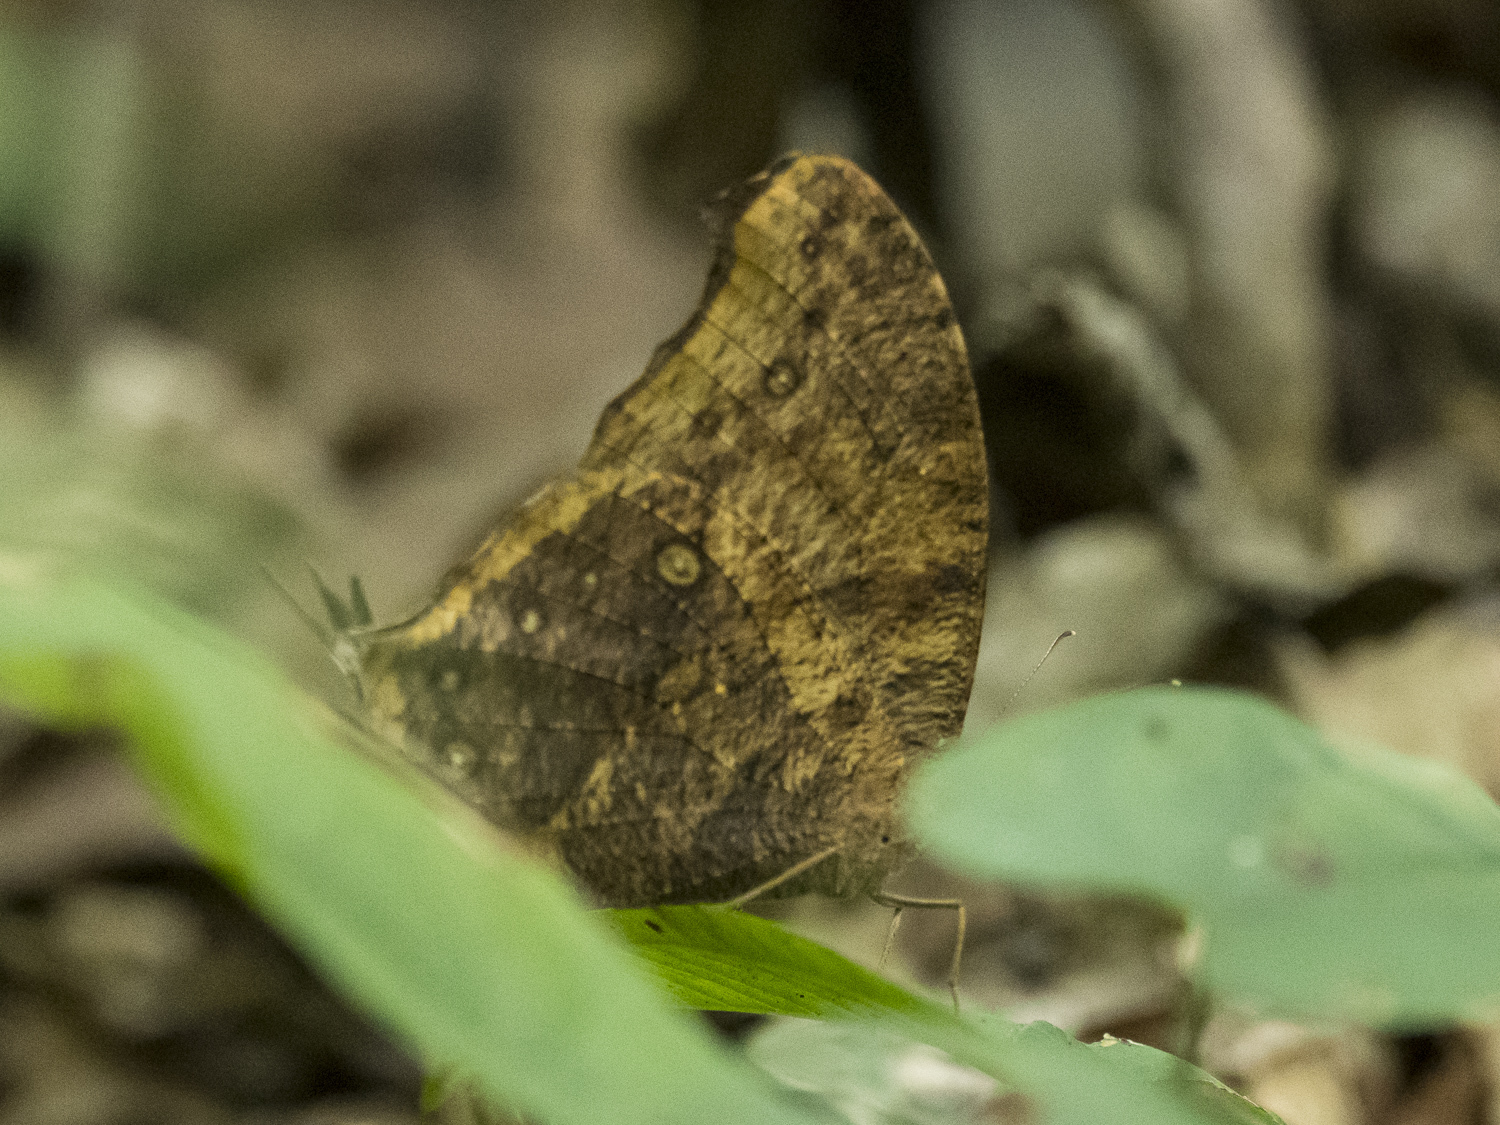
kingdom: Animalia
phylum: Arthropoda
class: Insecta
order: Lepidoptera
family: Nymphalidae
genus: Melanitis
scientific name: Melanitis leda
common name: Twilight brown
